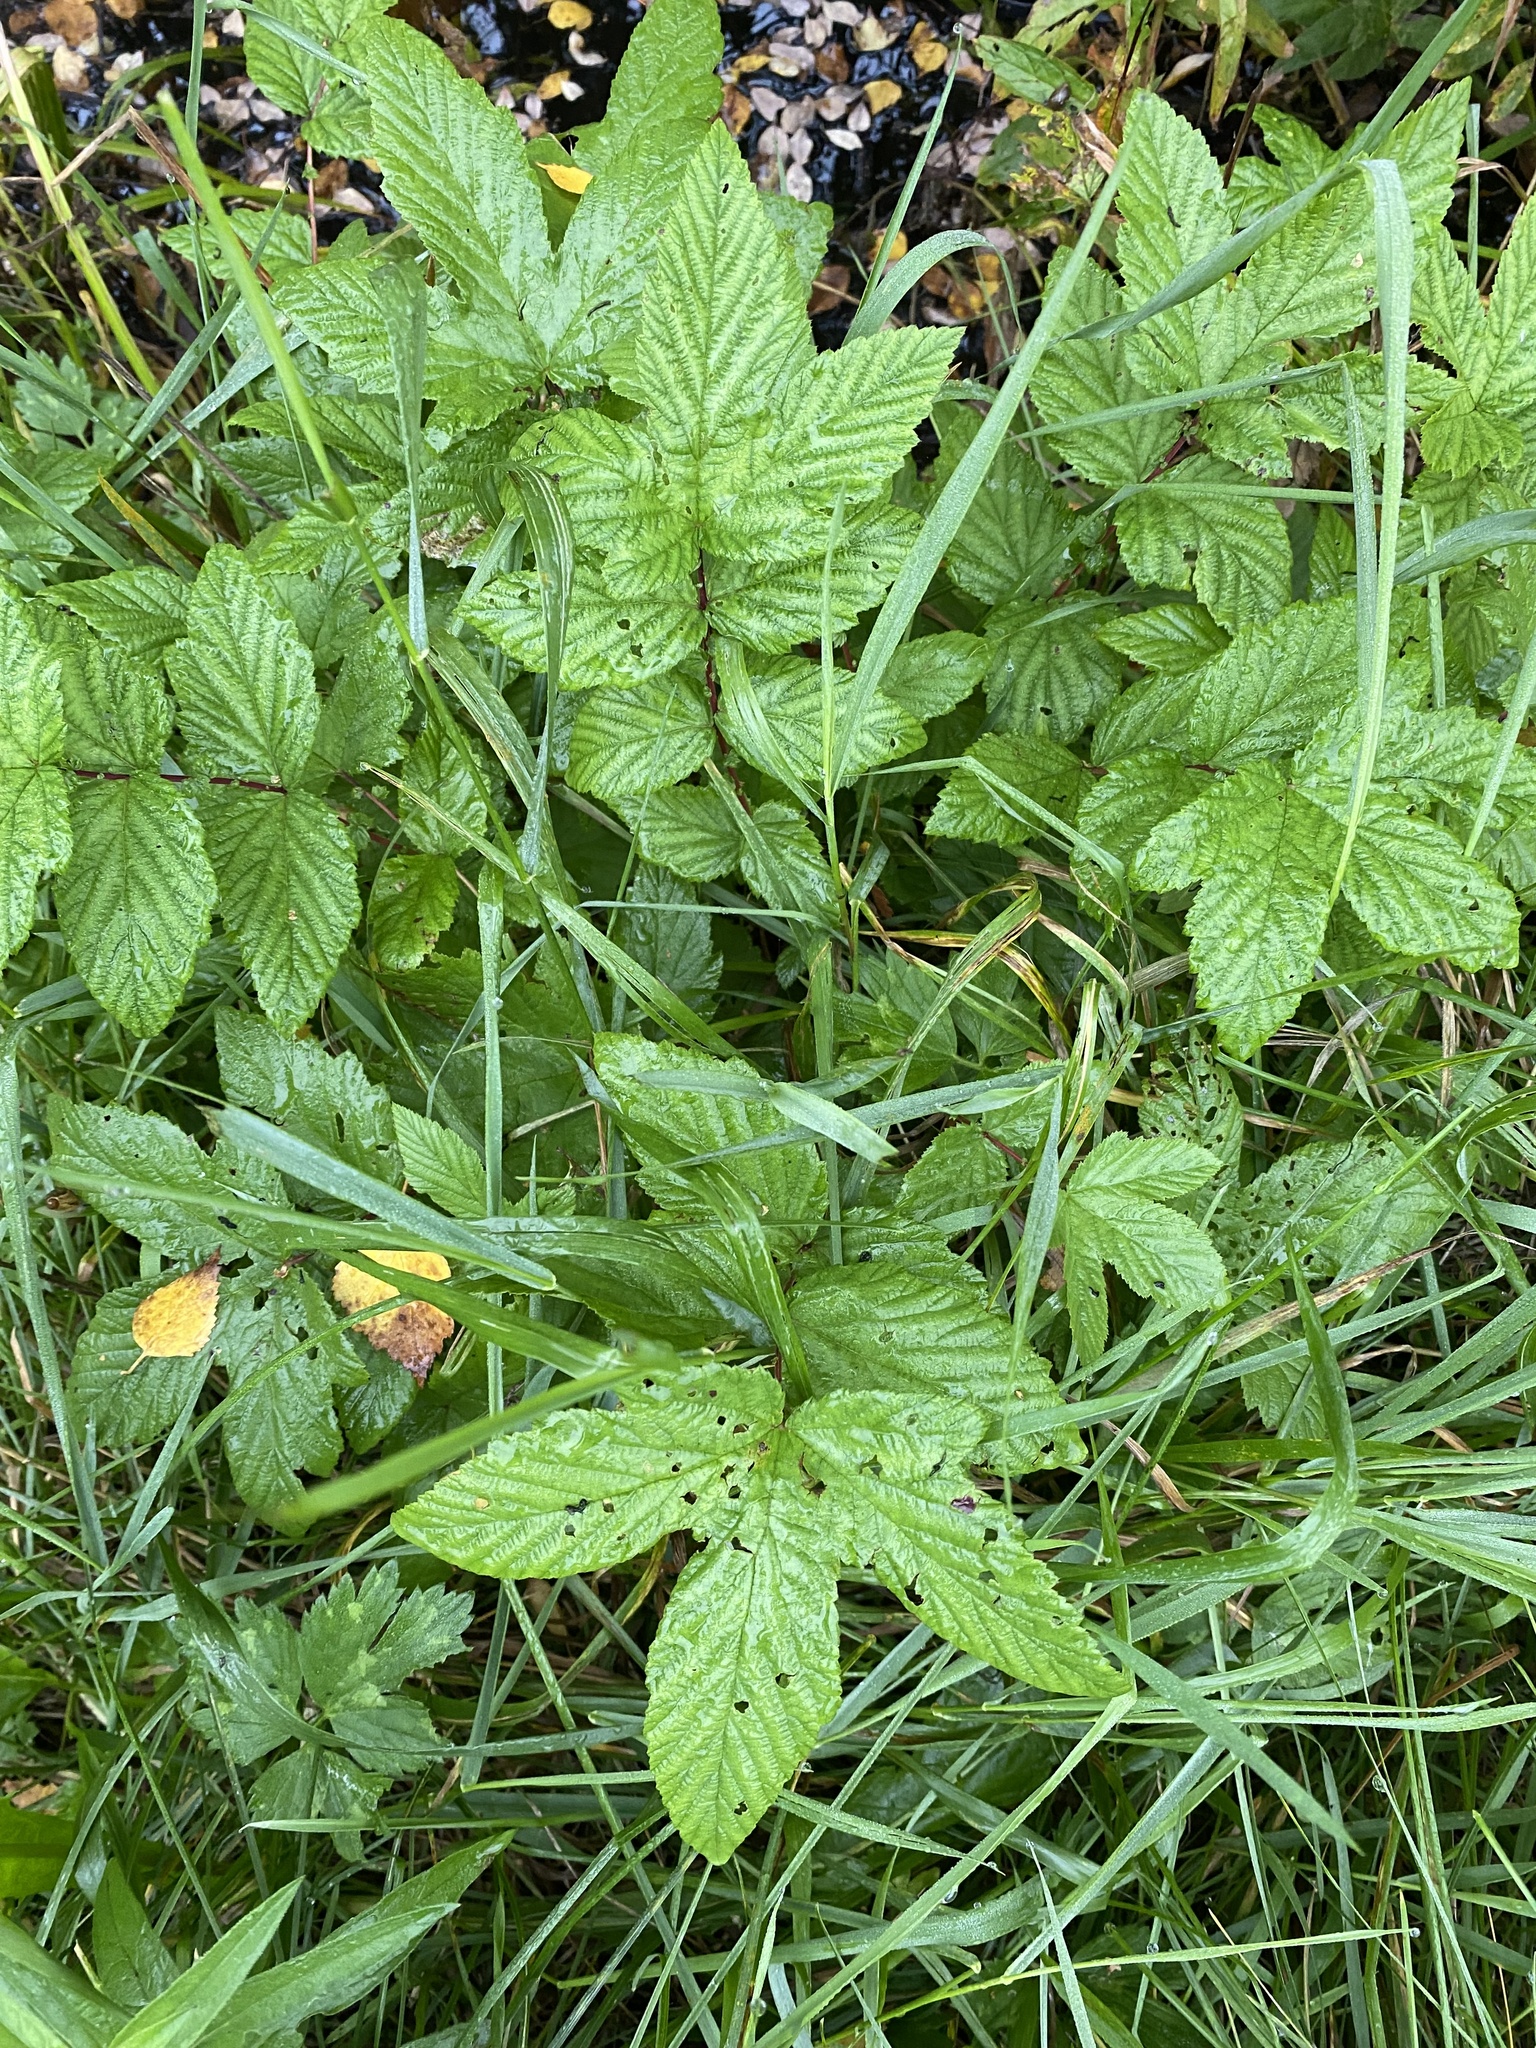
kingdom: Plantae
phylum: Tracheophyta
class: Magnoliopsida
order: Rosales
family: Rosaceae
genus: Filipendula
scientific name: Filipendula ulmaria
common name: Meadowsweet
